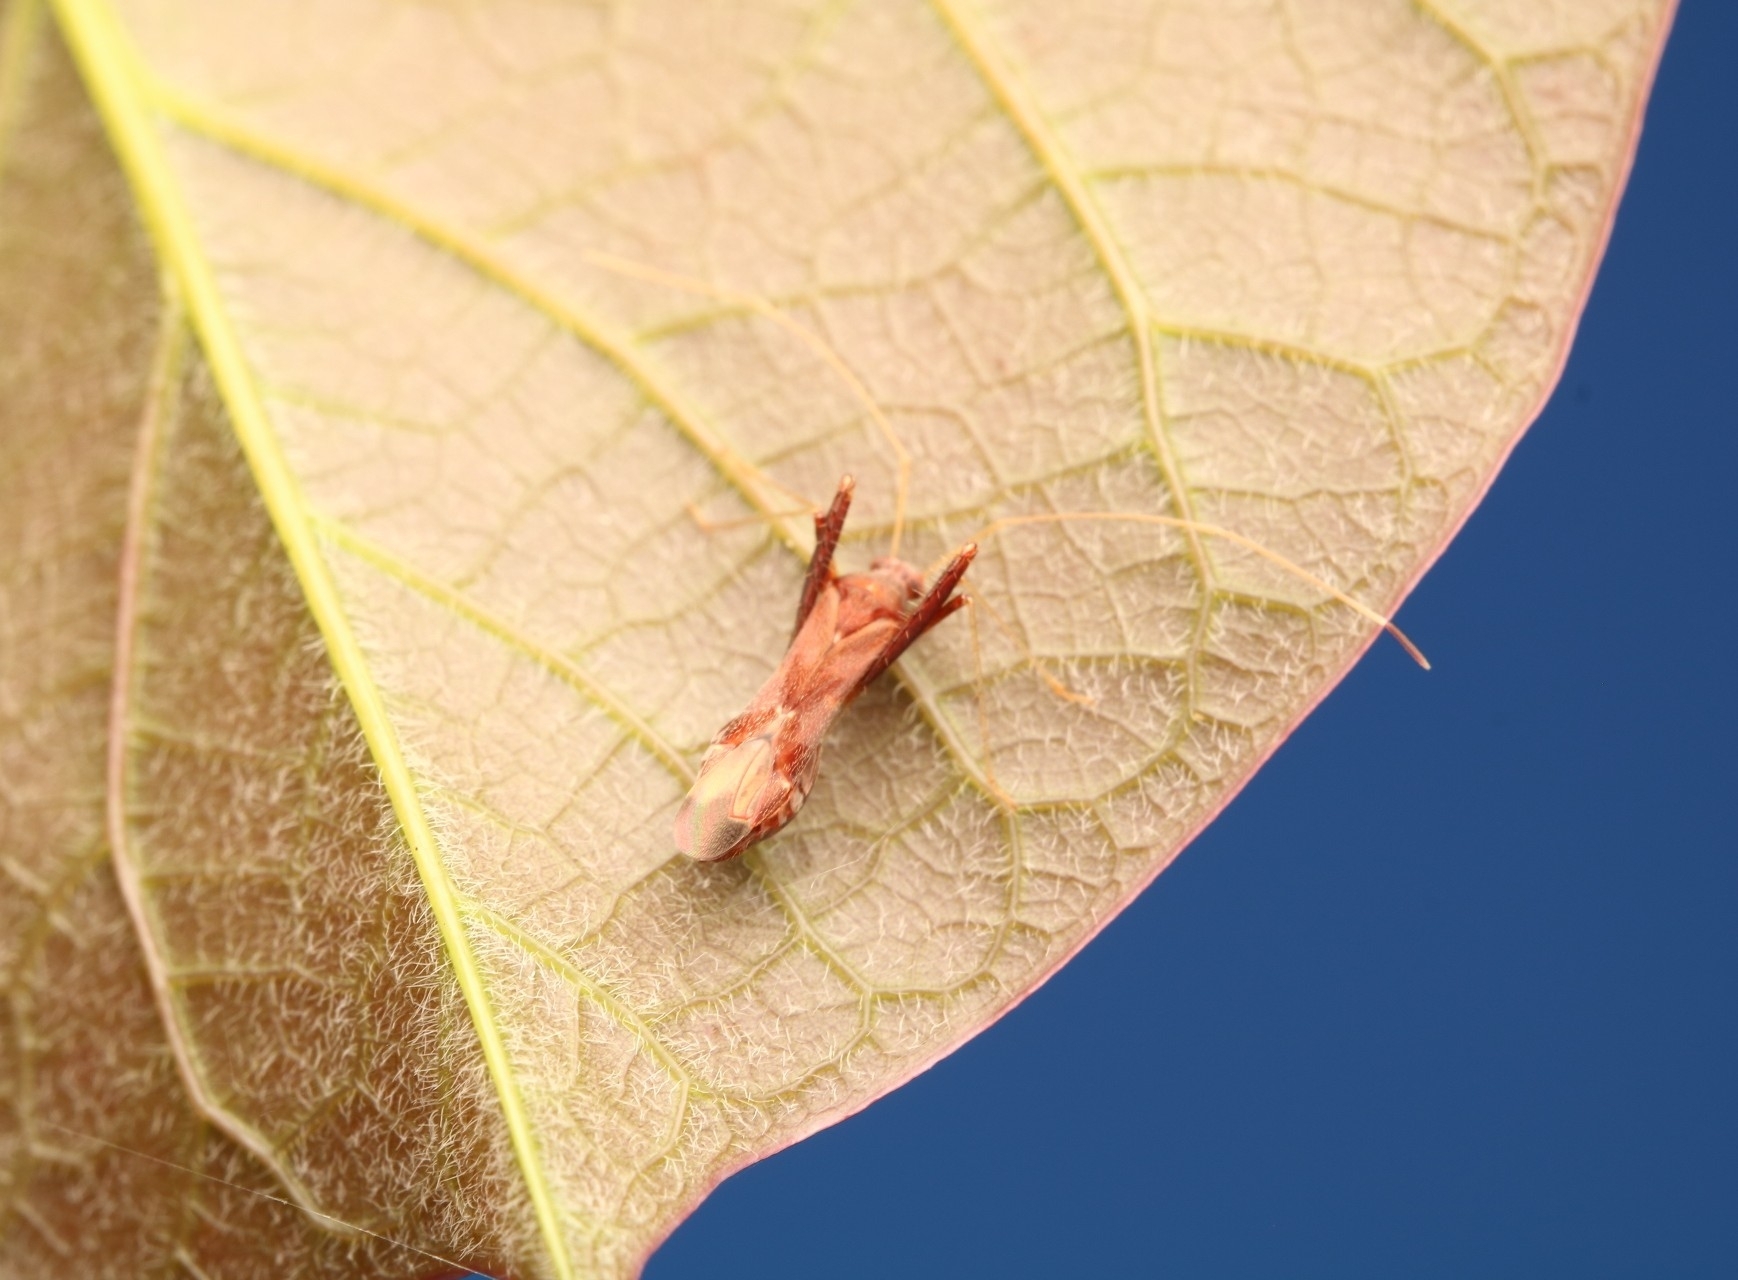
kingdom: Animalia
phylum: Arthropoda
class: Insecta
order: Hemiptera
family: Miridae
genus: Paraxenetus
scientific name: Paraxenetus guttulatus
